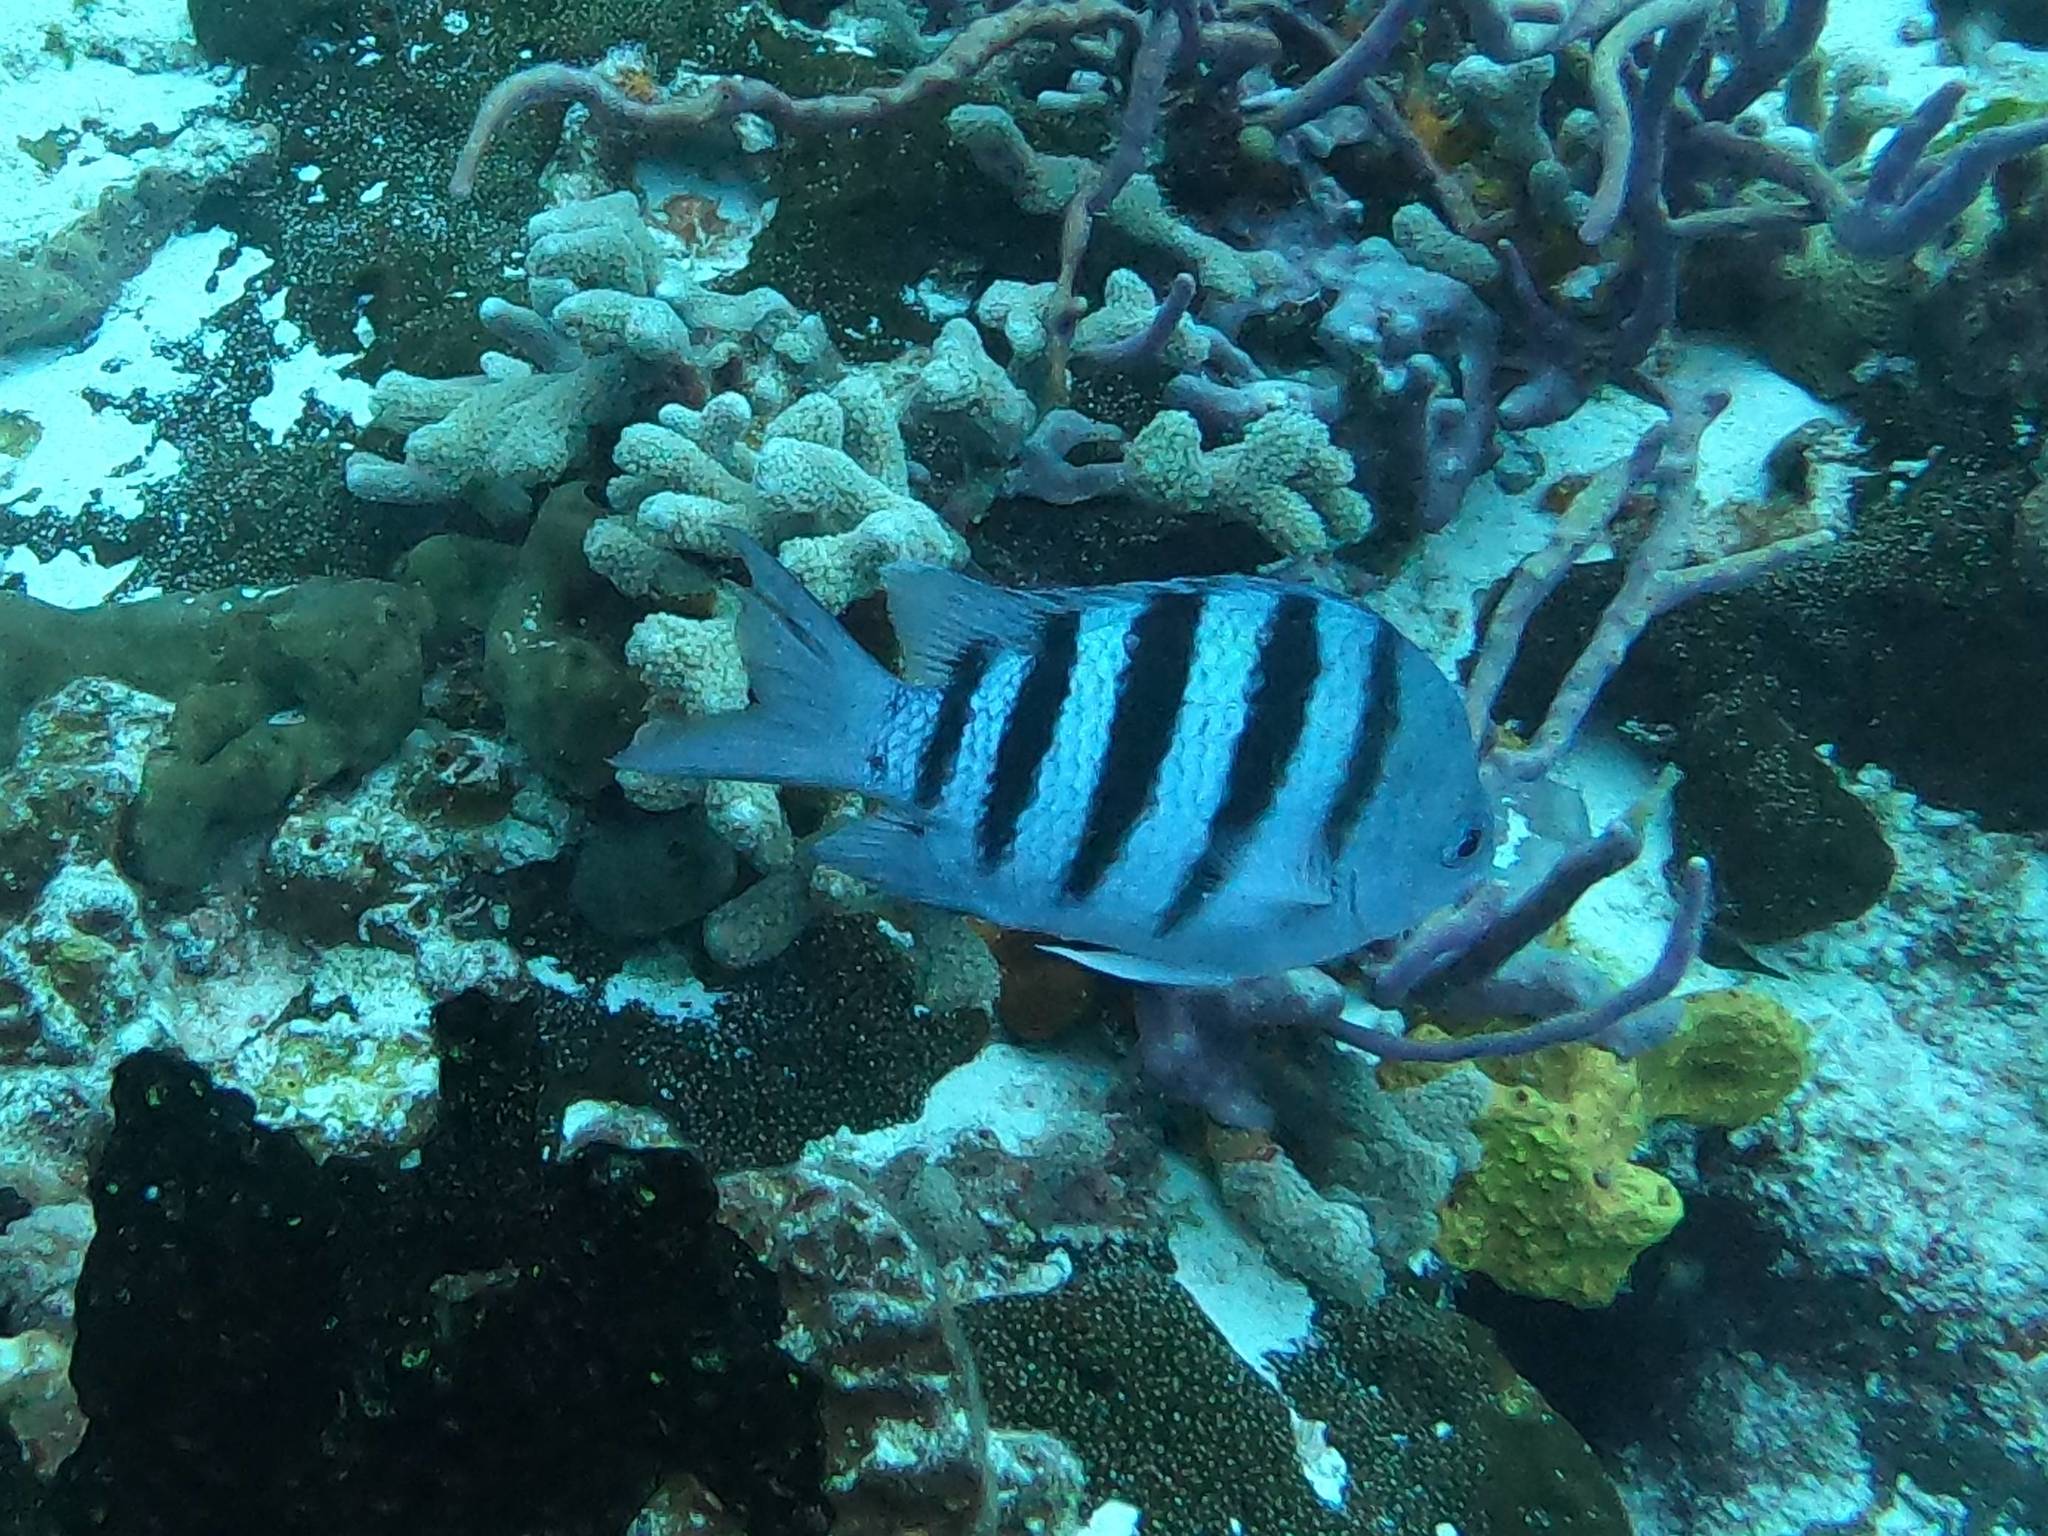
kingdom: Animalia
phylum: Chordata
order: Perciformes
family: Pomacentridae
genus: Abudefduf
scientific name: Abudefduf saxatilis
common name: Sergeant major
